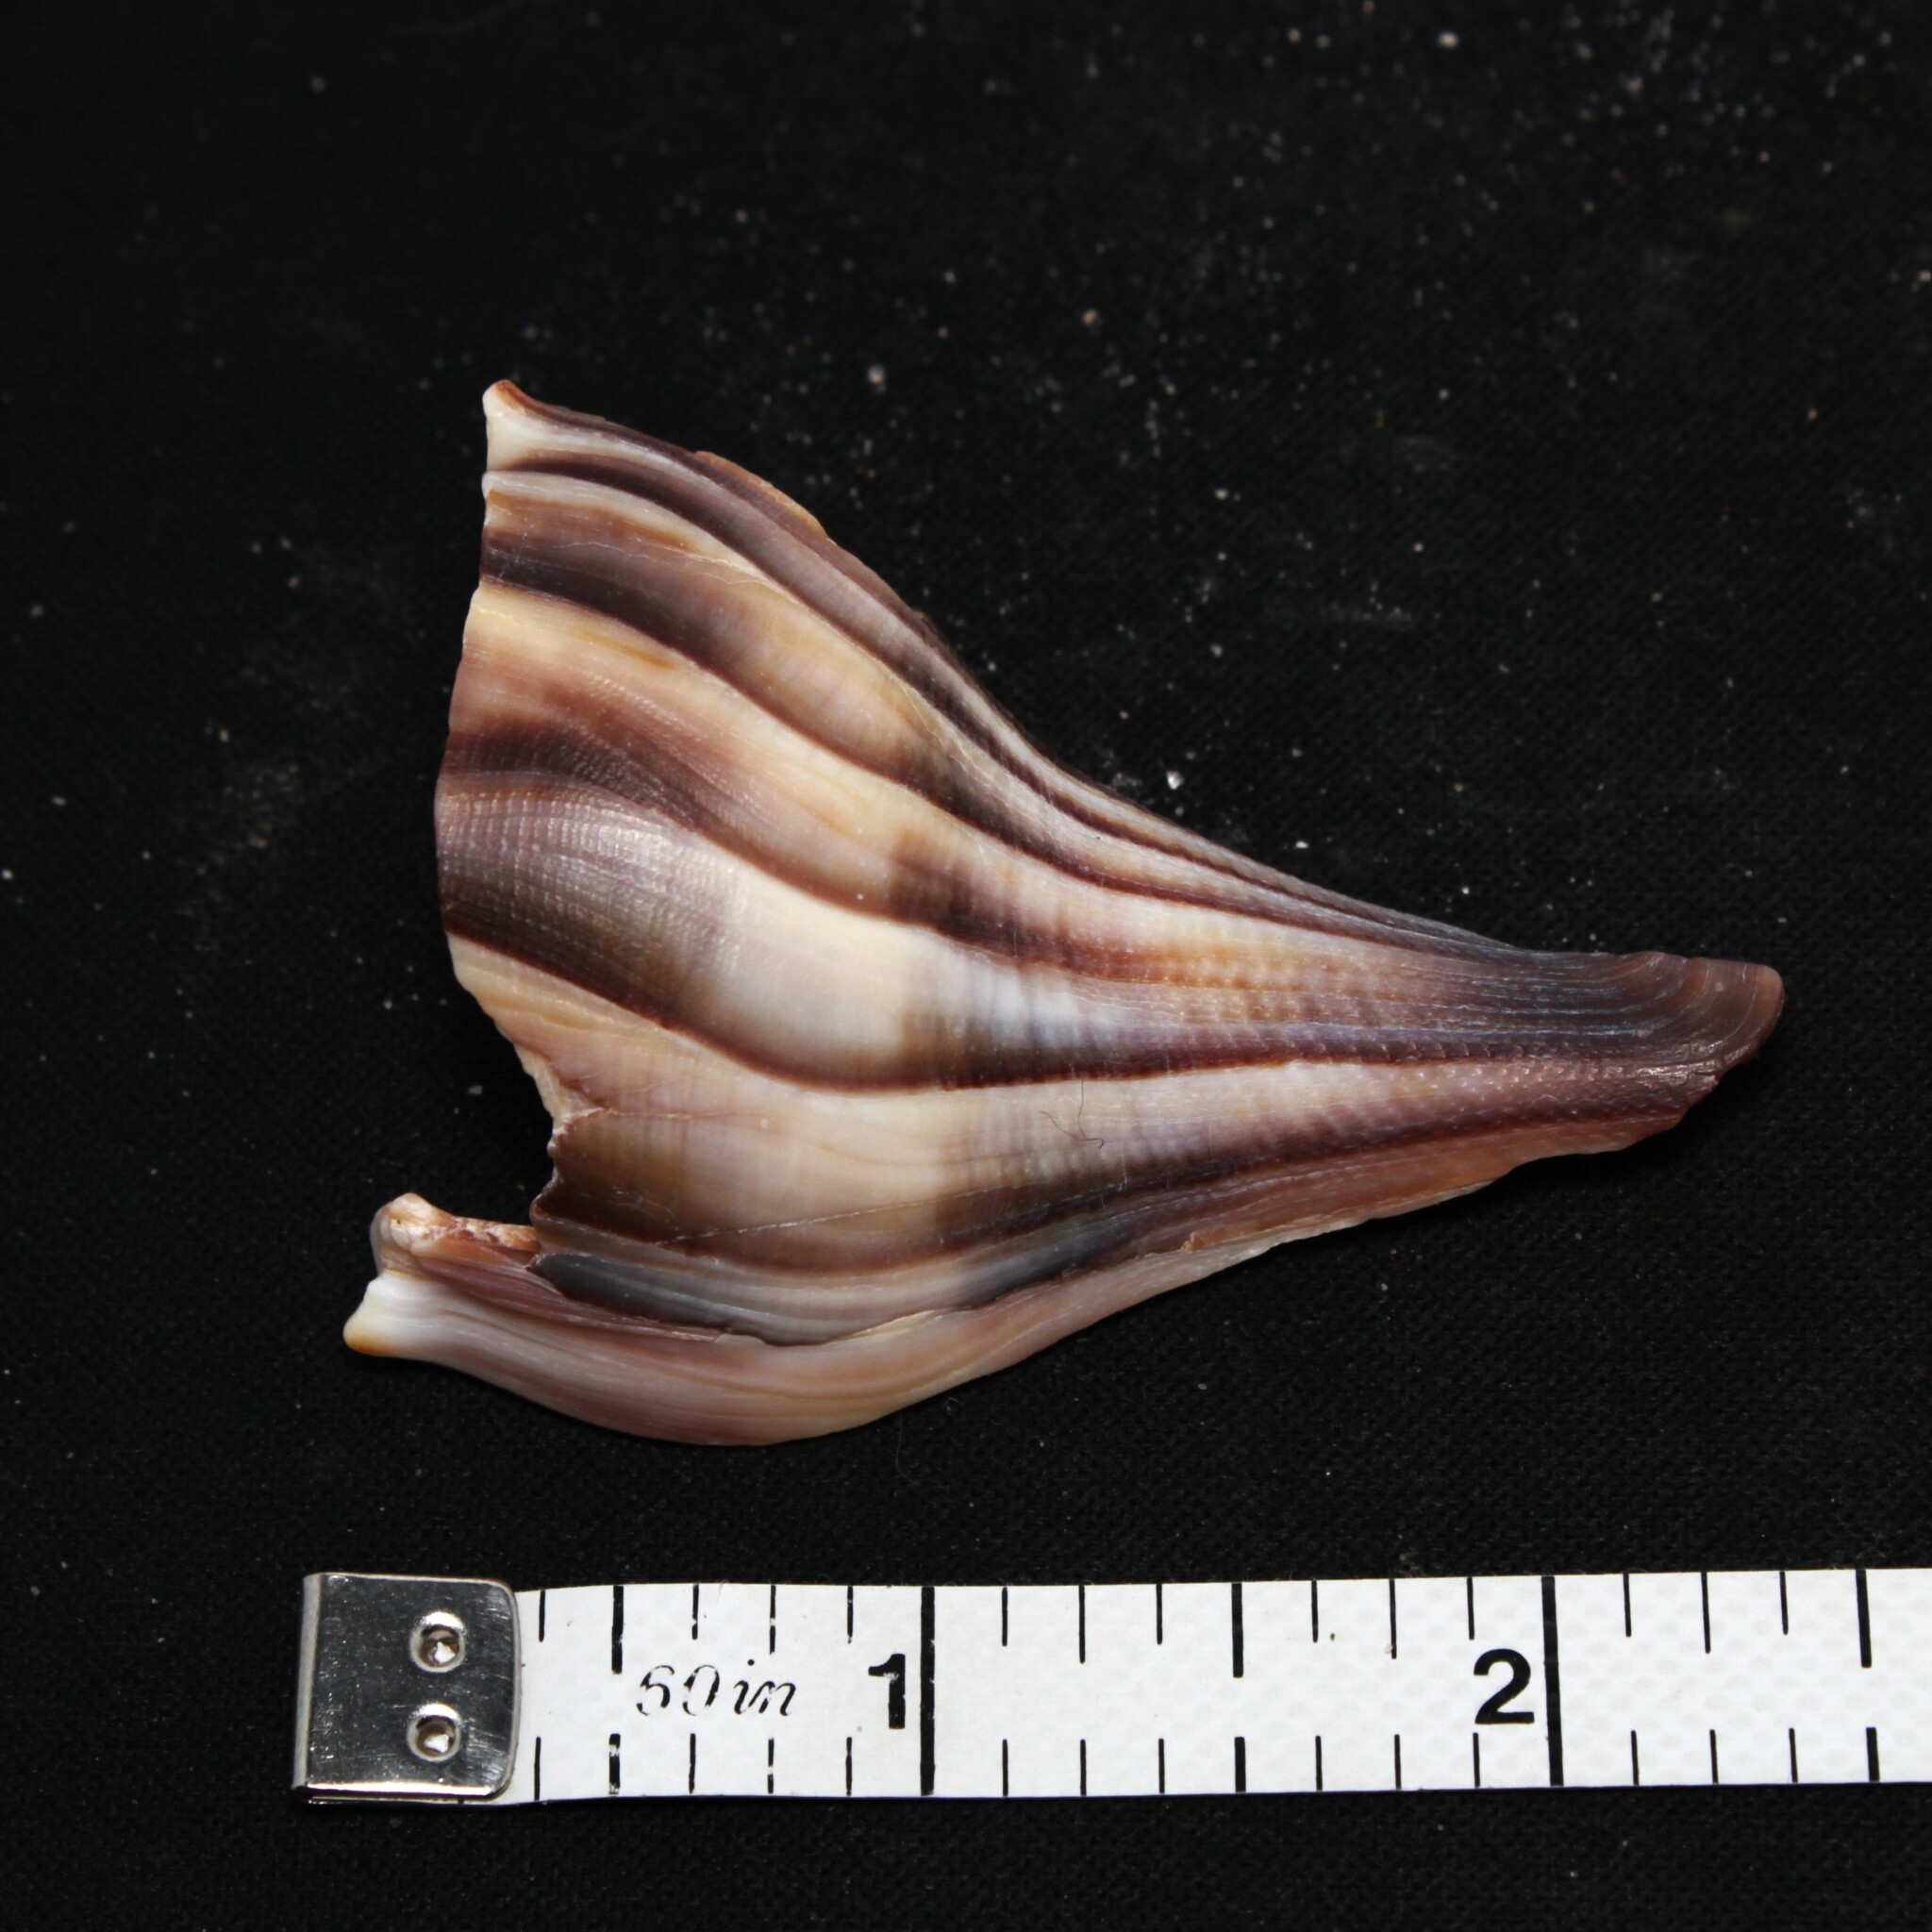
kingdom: Animalia
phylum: Mollusca
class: Gastropoda
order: Neogastropoda
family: Busyconidae
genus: Busycon
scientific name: Busycon carica
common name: Knobbed whelk
